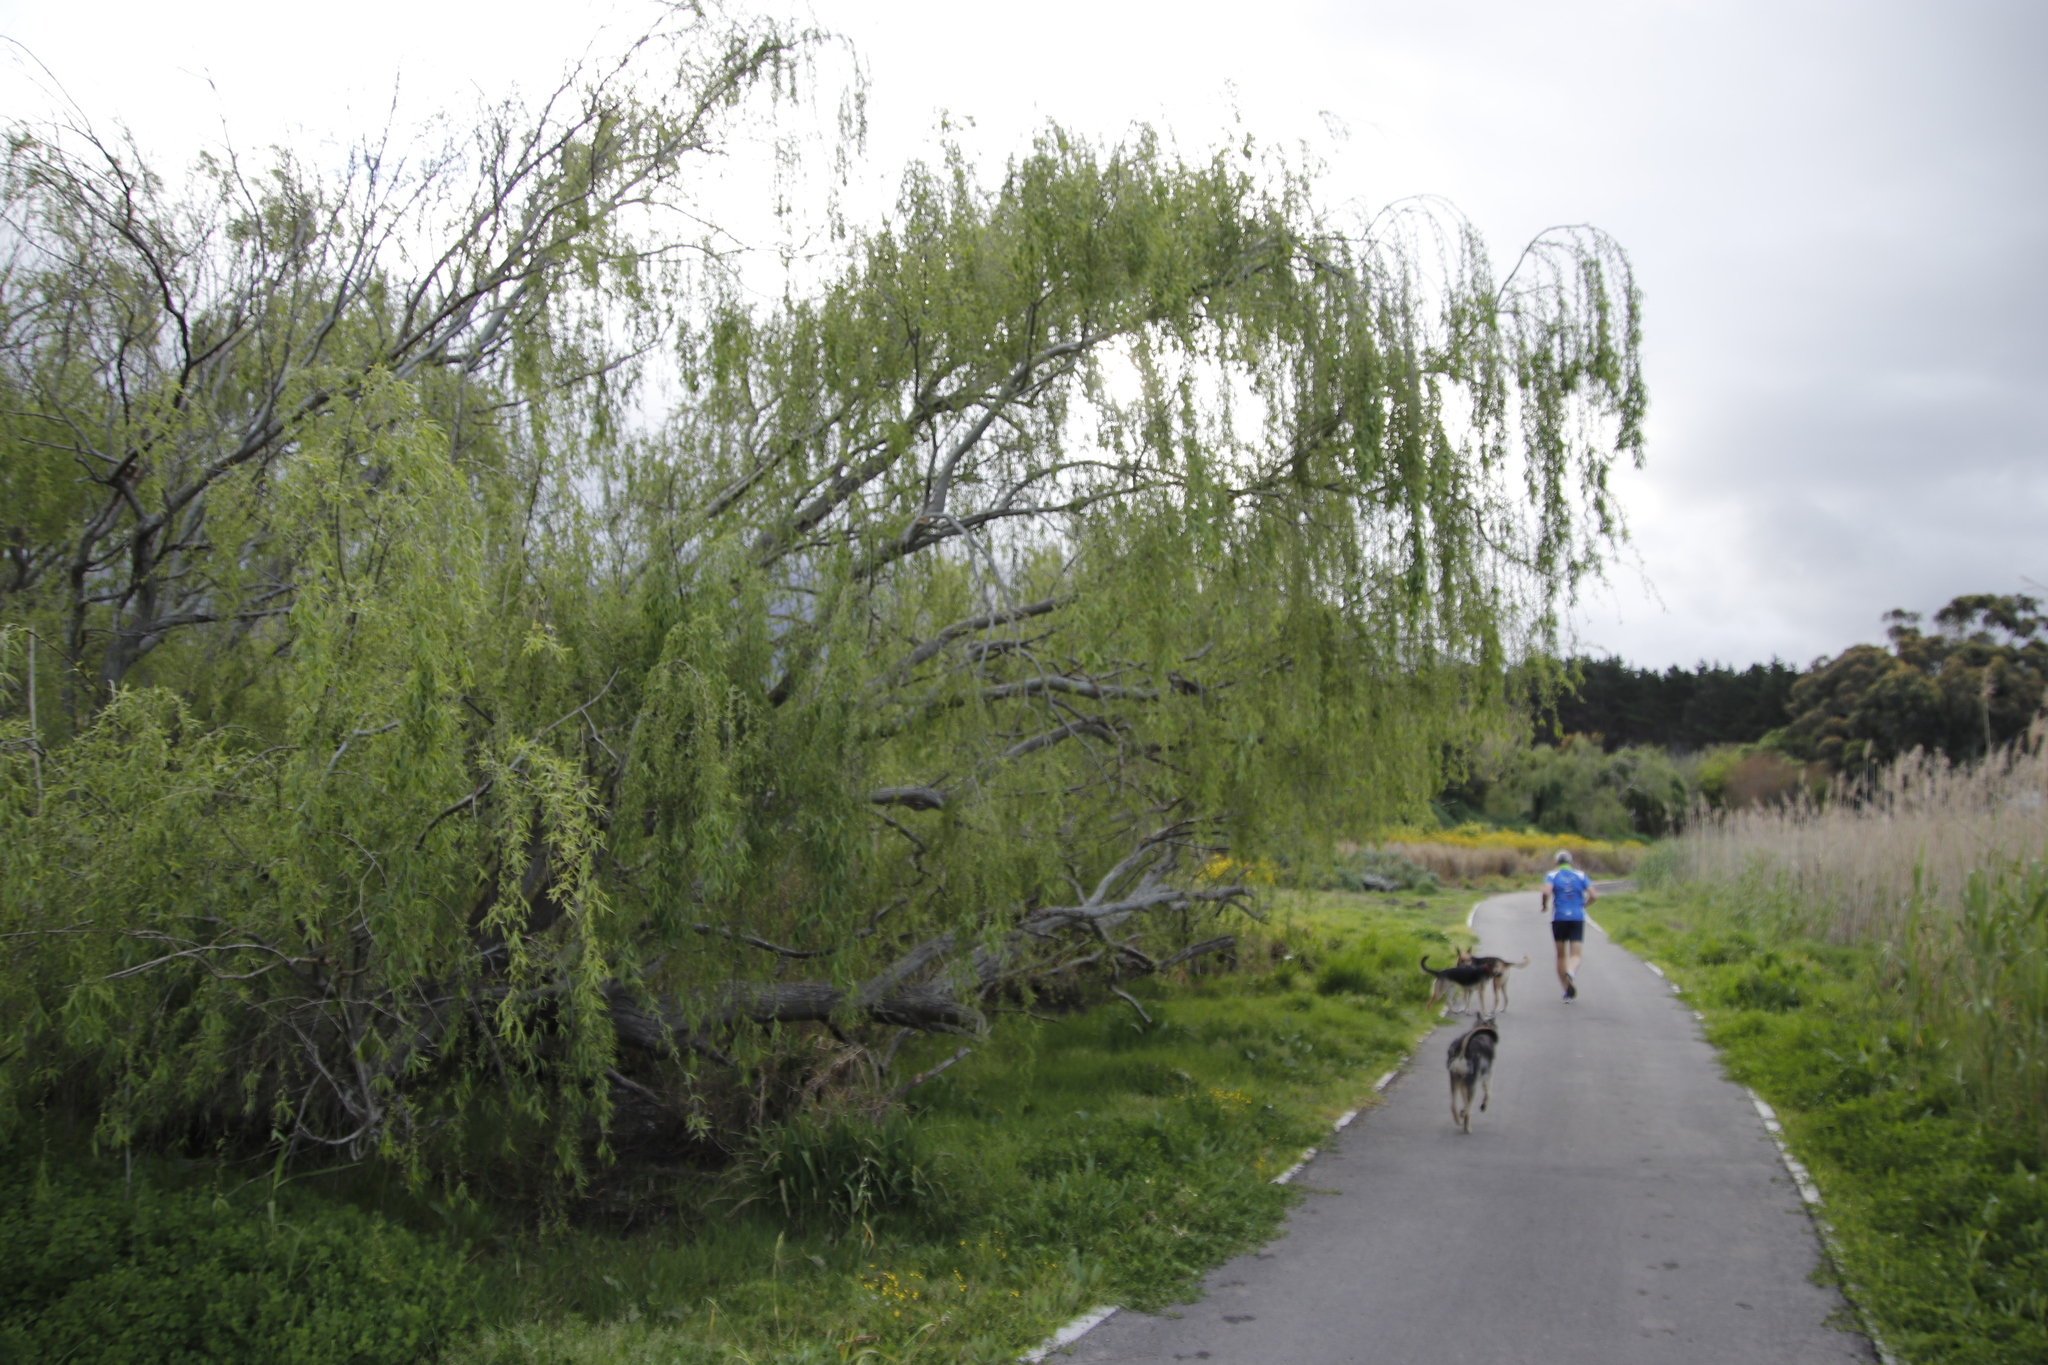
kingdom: Plantae
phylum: Tracheophyta
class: Magnoliopsida
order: Malpighiales
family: Salicaceae
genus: Salix
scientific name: Salix babylonica
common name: Weeping willow
